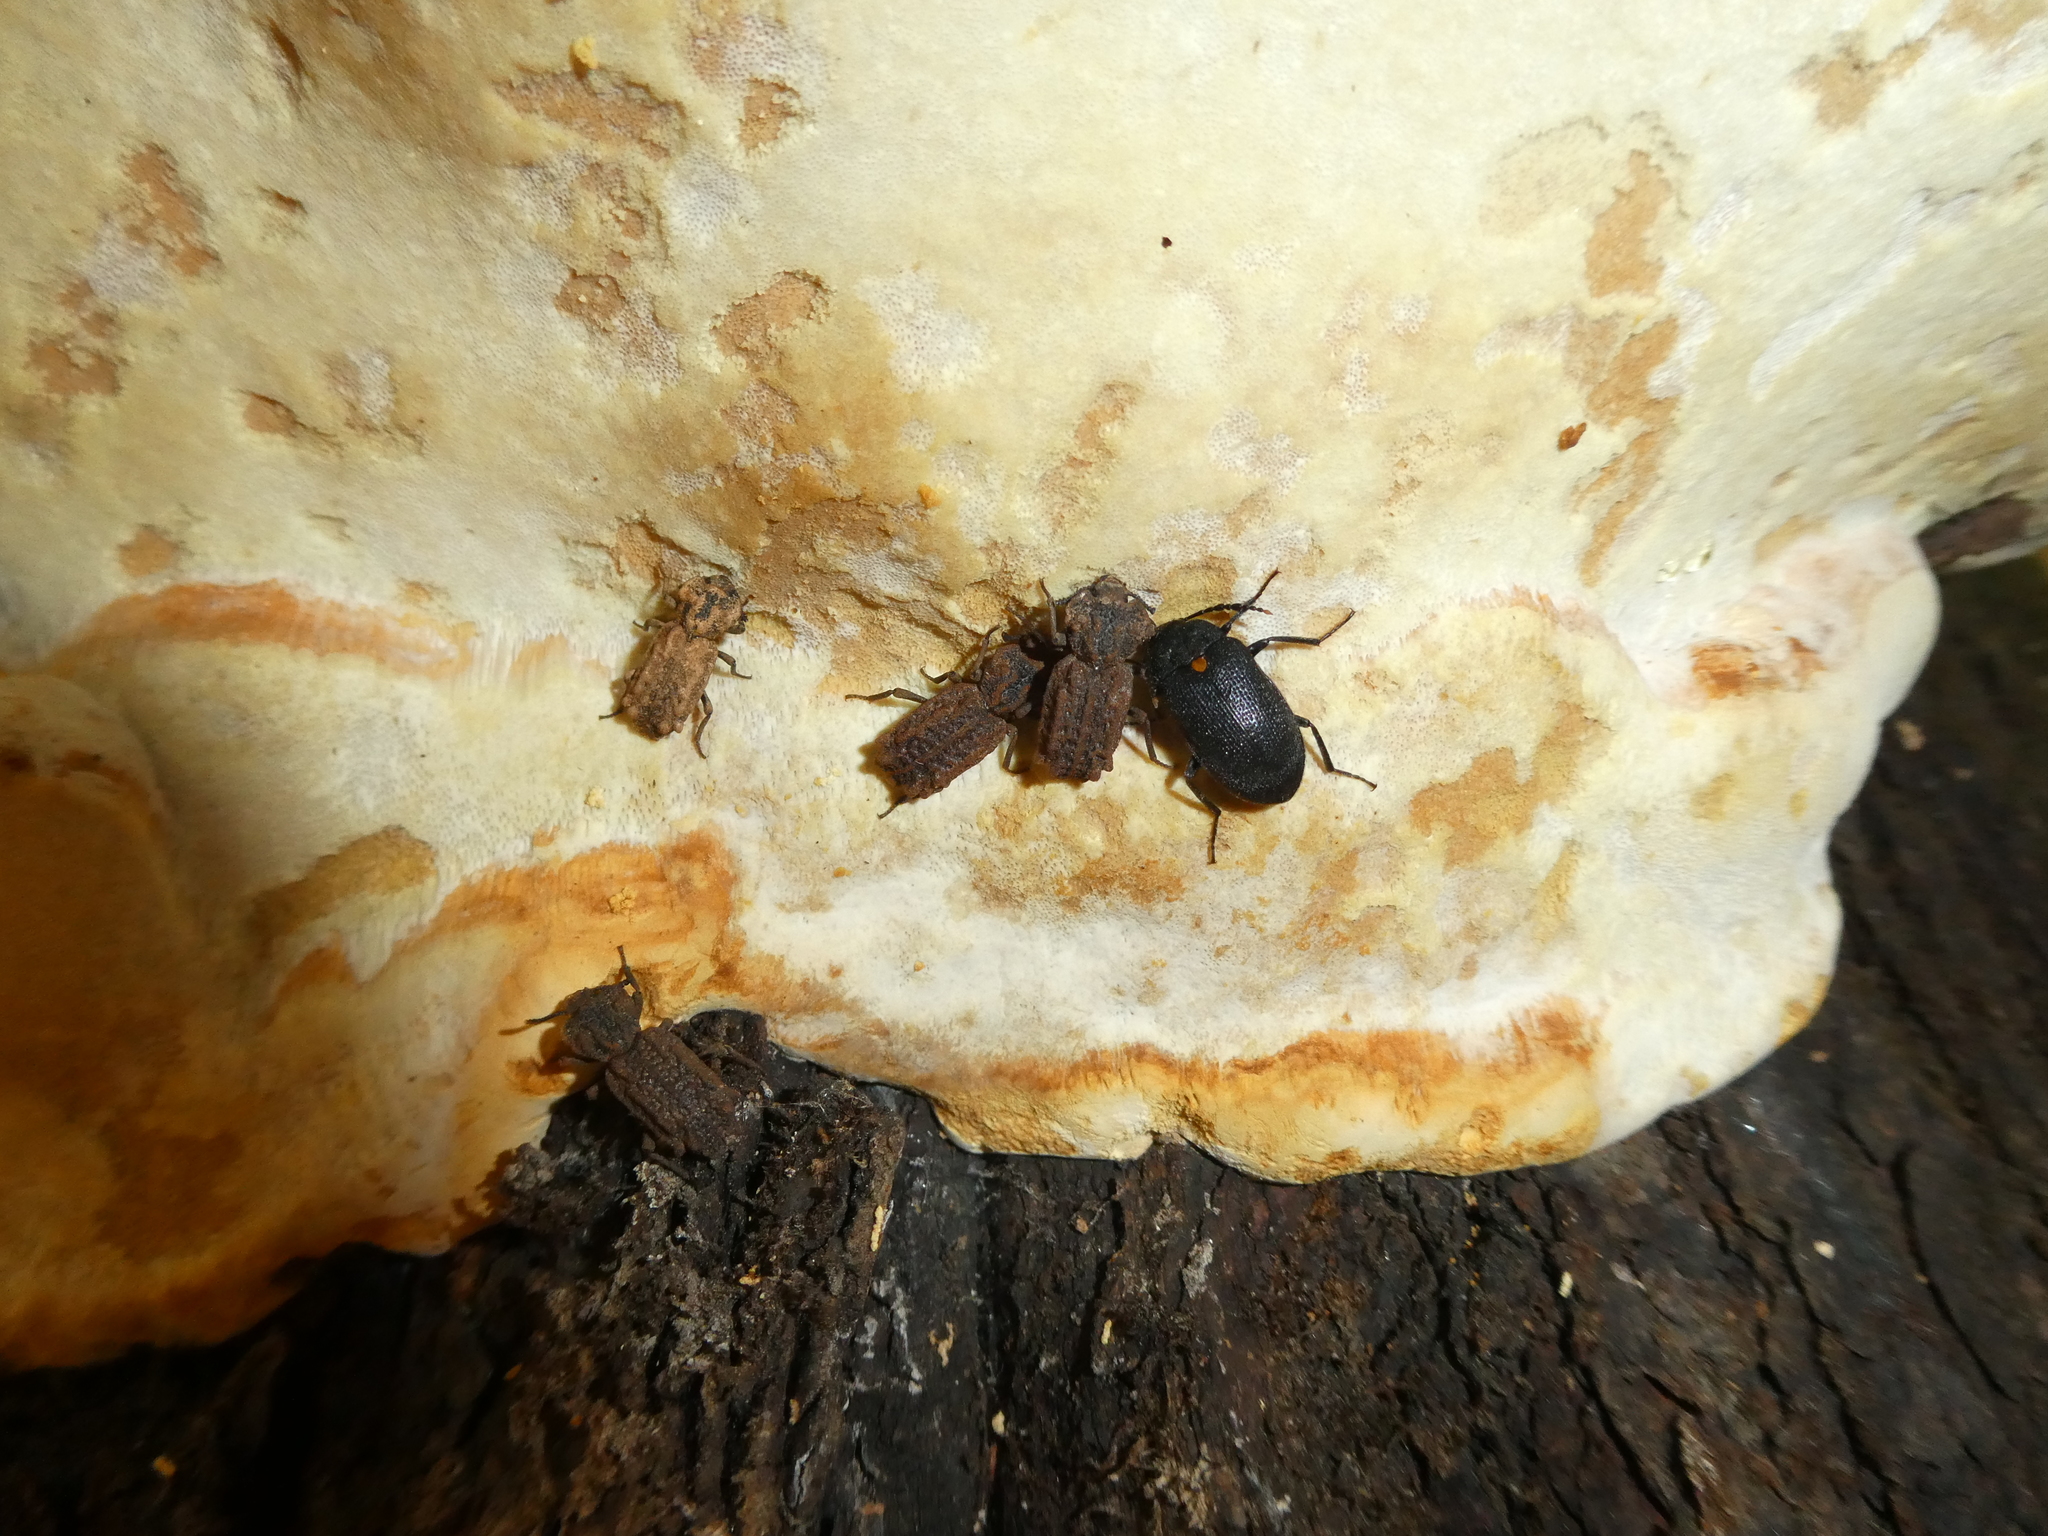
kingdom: Animalia
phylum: Arthropoda
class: Insecta
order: Coleoptera
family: Tetratomidae
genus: Penthe
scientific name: Penthe obliquata
